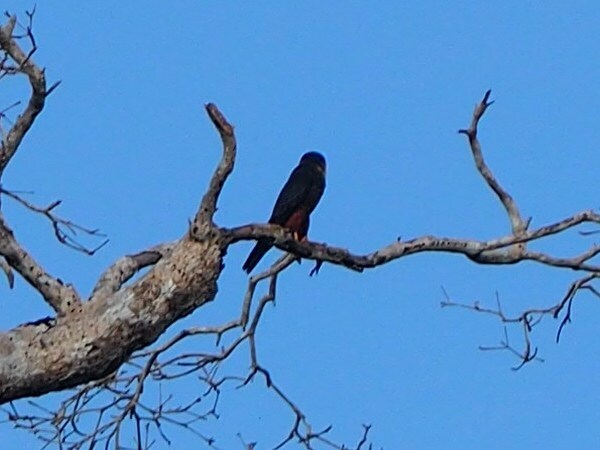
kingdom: Animalia
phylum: Chordata
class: Aves
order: Falconiformes
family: Falconidae
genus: Falco
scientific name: Falco rufigularis
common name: Bat falcon
